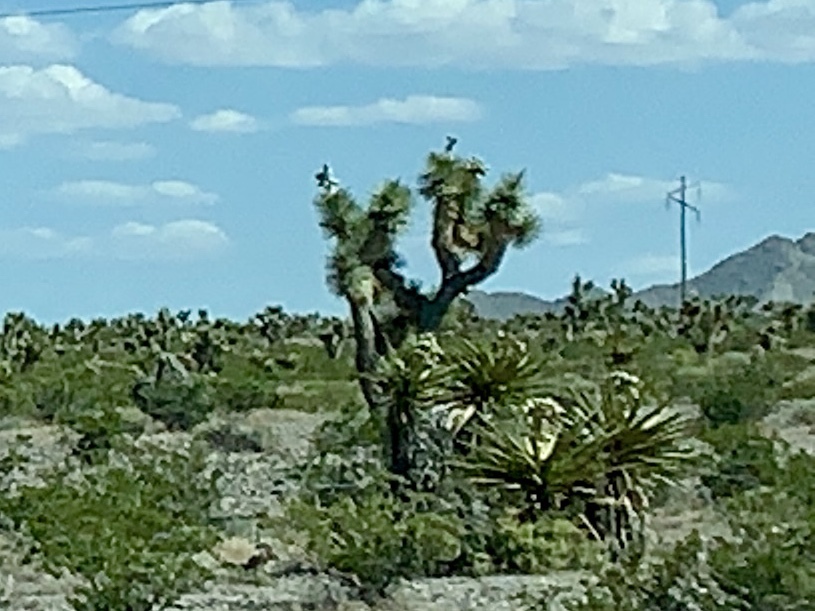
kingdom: Plantae
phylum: Tracheophyta
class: Liliopsida
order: Asparagales
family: Asparagaceae
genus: Yucca
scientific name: Yucca brevifolia
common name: Joshua tree
